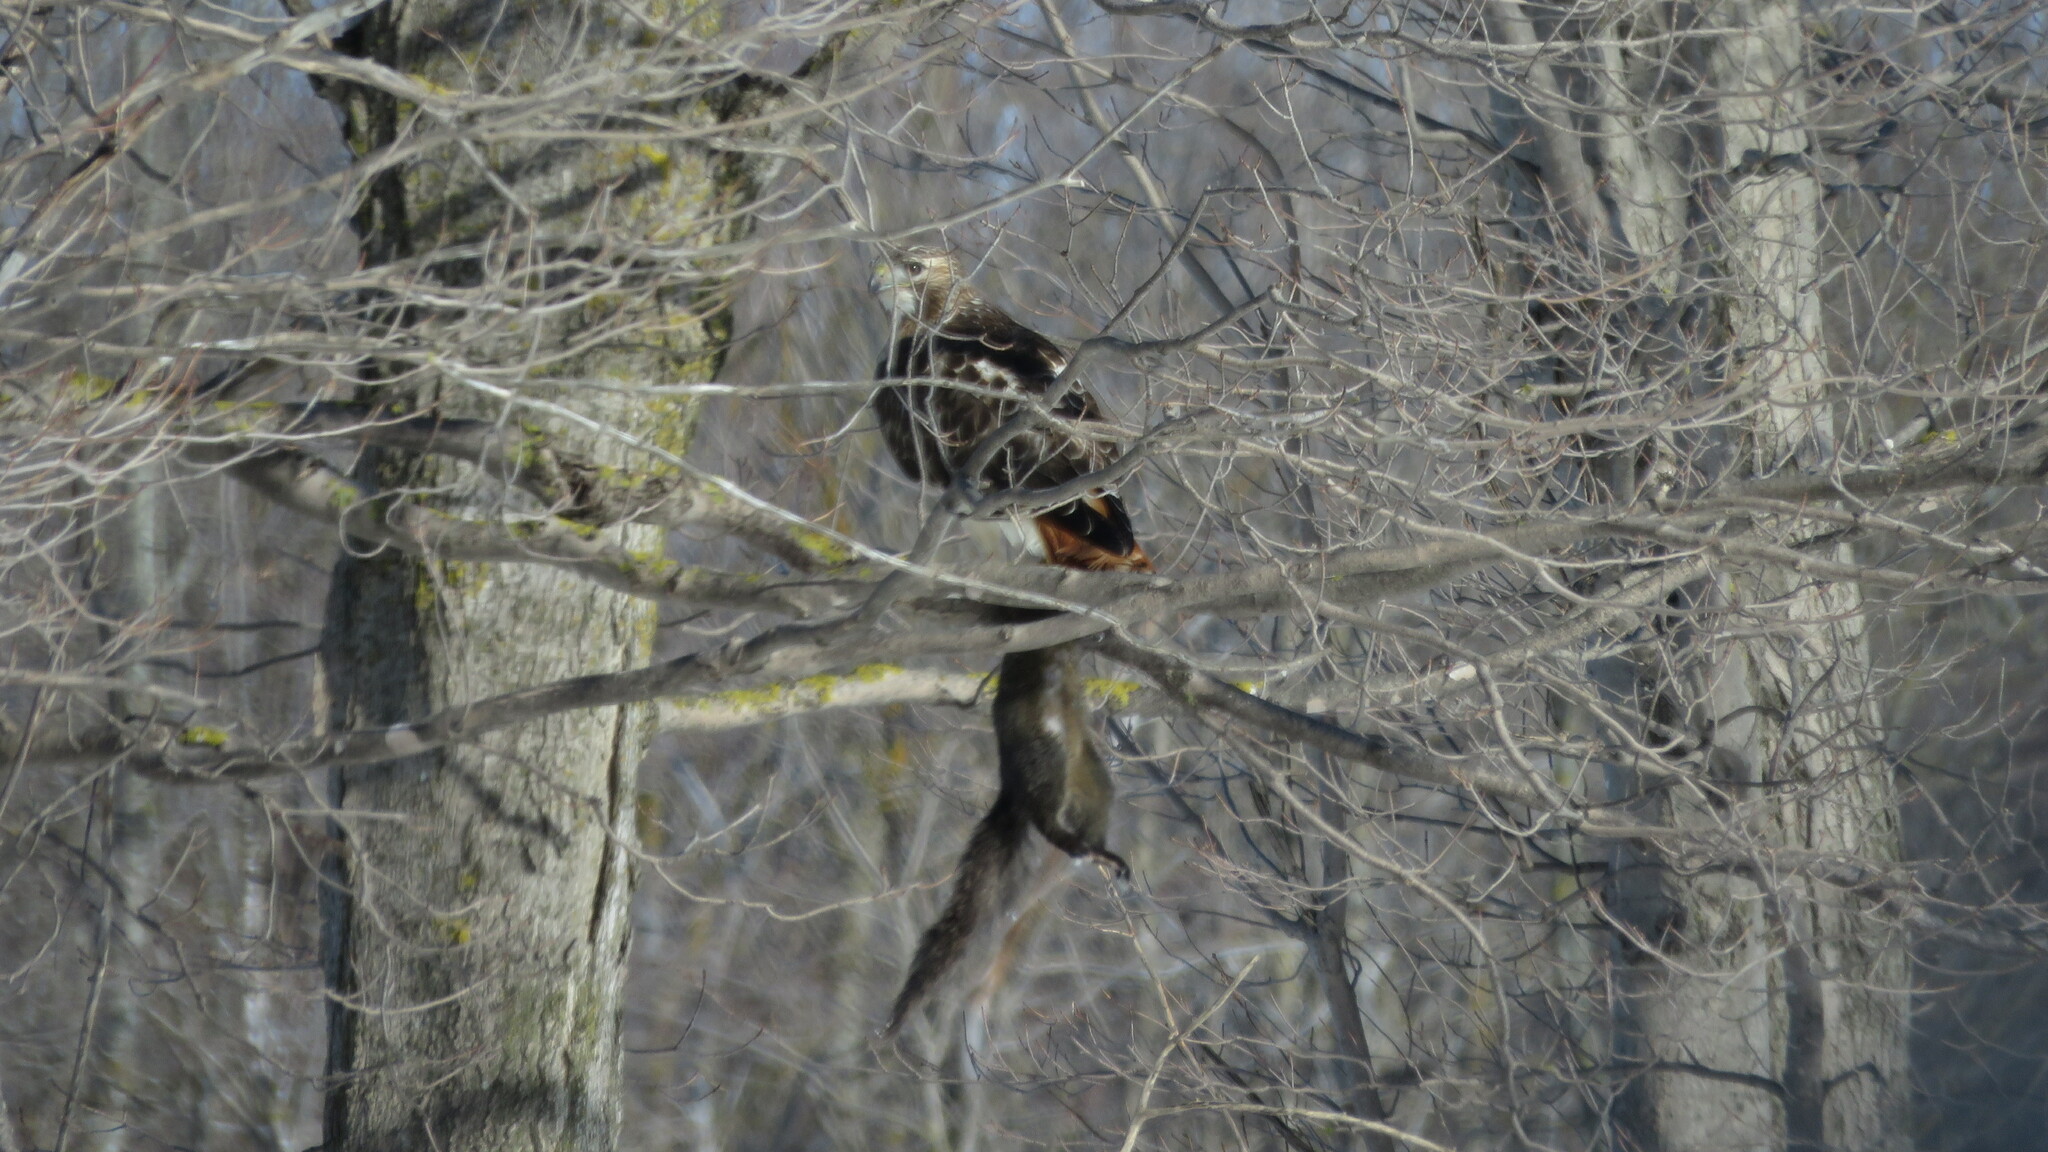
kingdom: Animalia
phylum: Chordata
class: Aves
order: Accipitriformes
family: Accipitridae
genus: Buteo
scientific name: Buteo jamaicensis
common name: Red-tailed hawk
